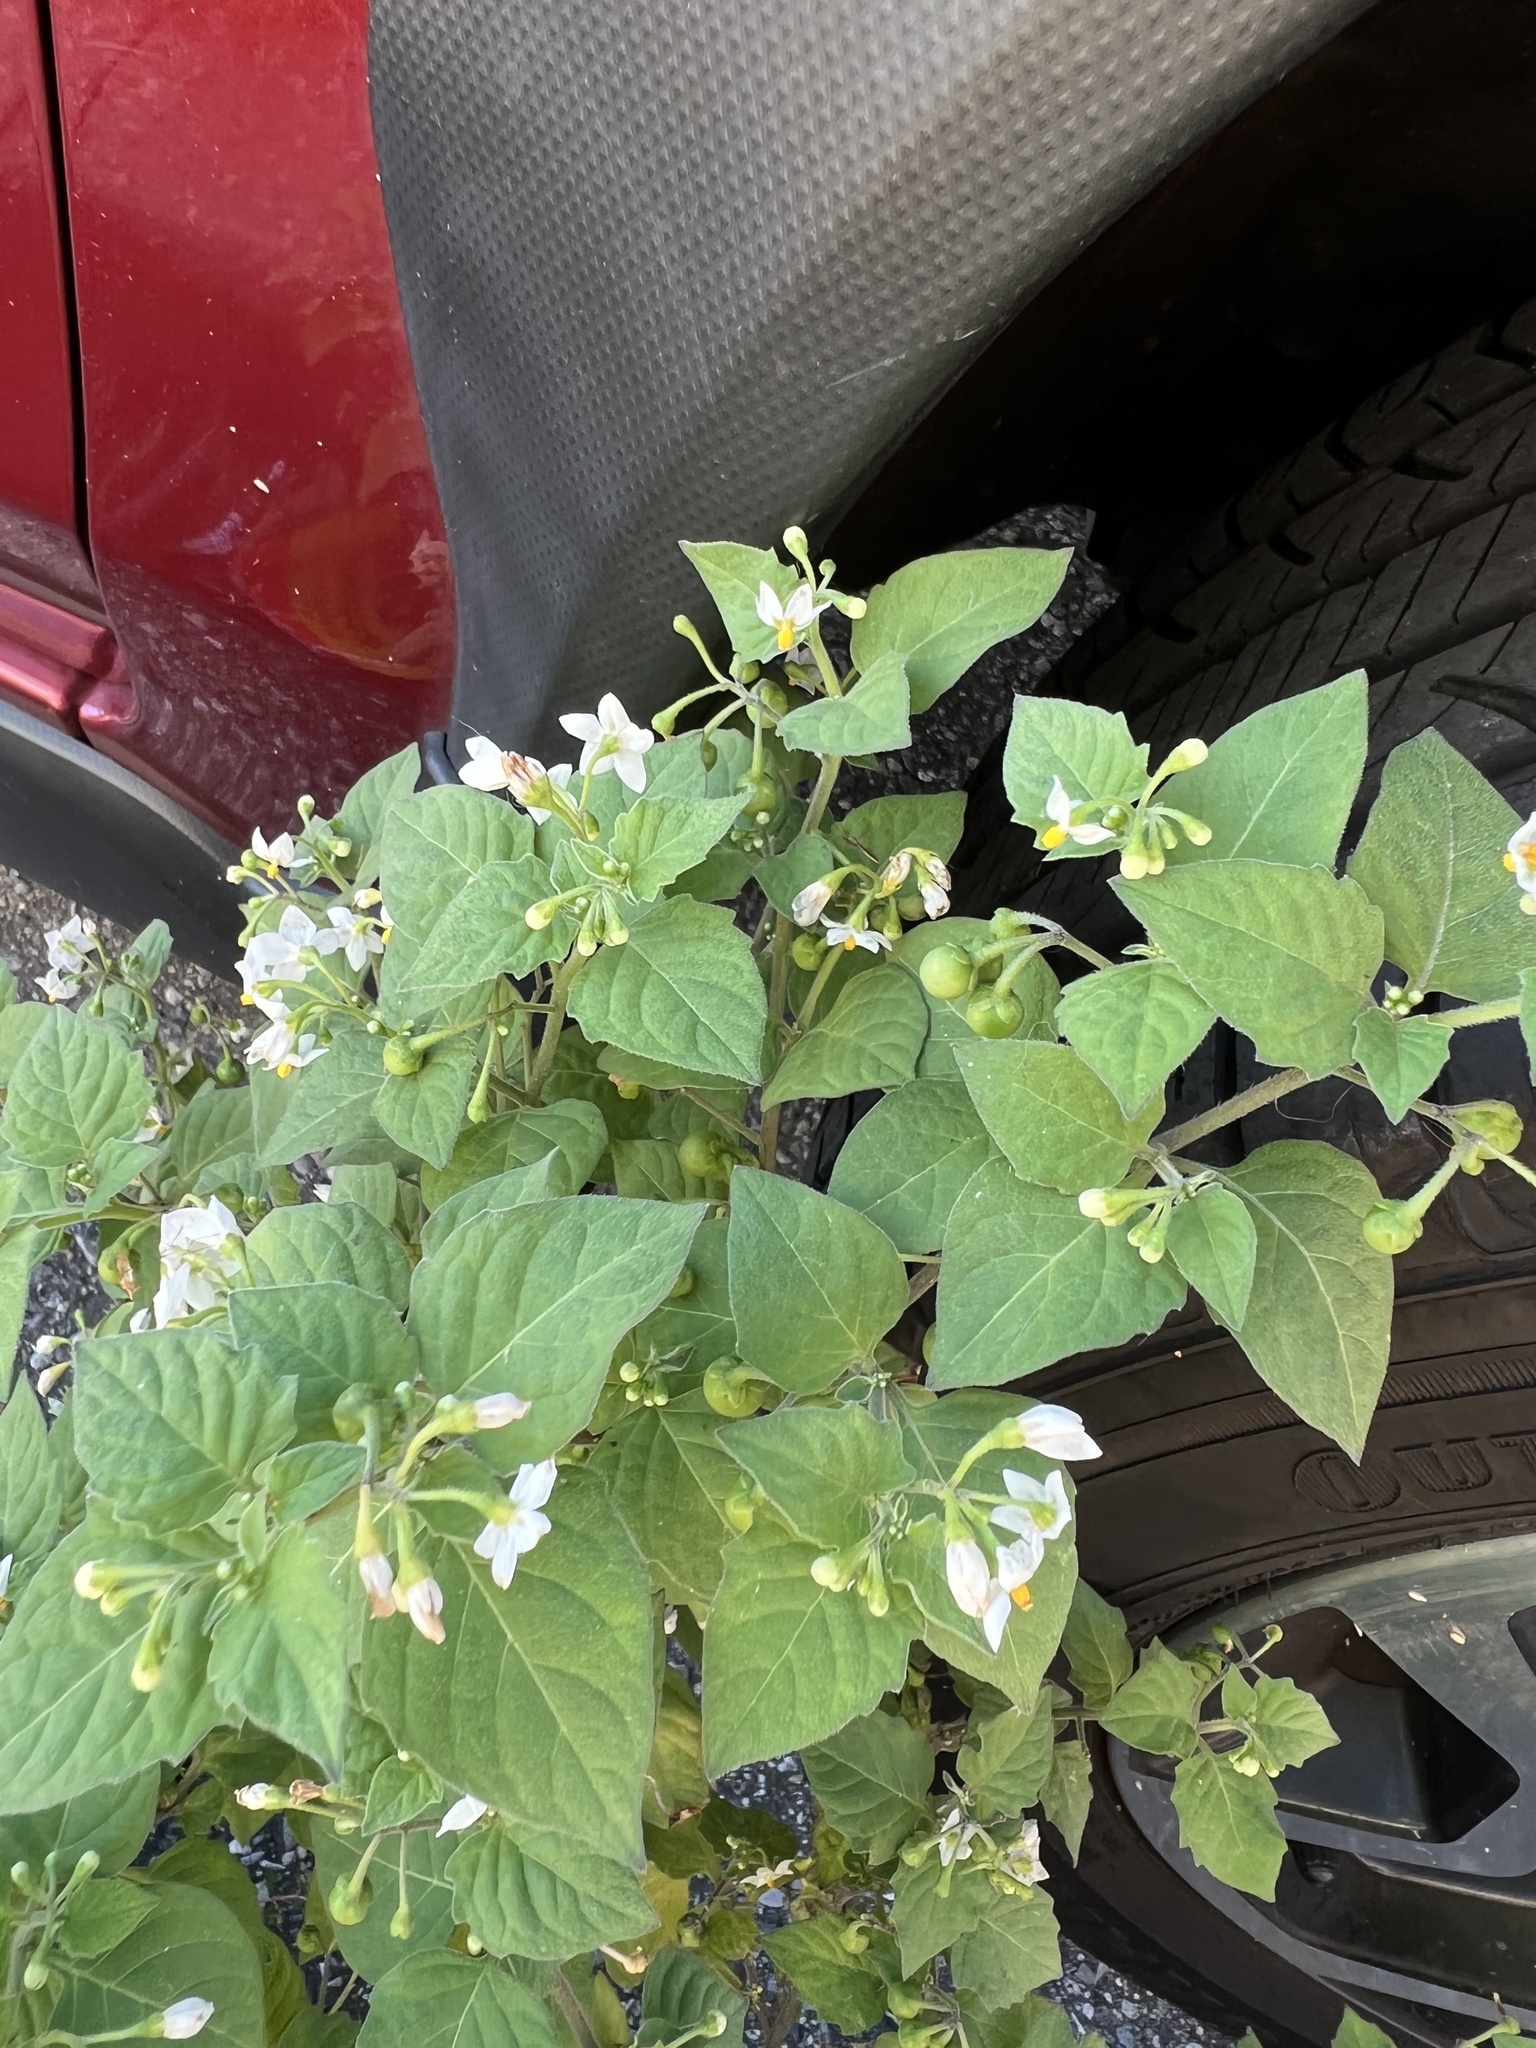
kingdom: Plantae
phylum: Tracheophyta
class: Magnoliopsida
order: Solanales
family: Solanaceae
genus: Solanum
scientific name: Solanum nigrum
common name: Black nightshade
